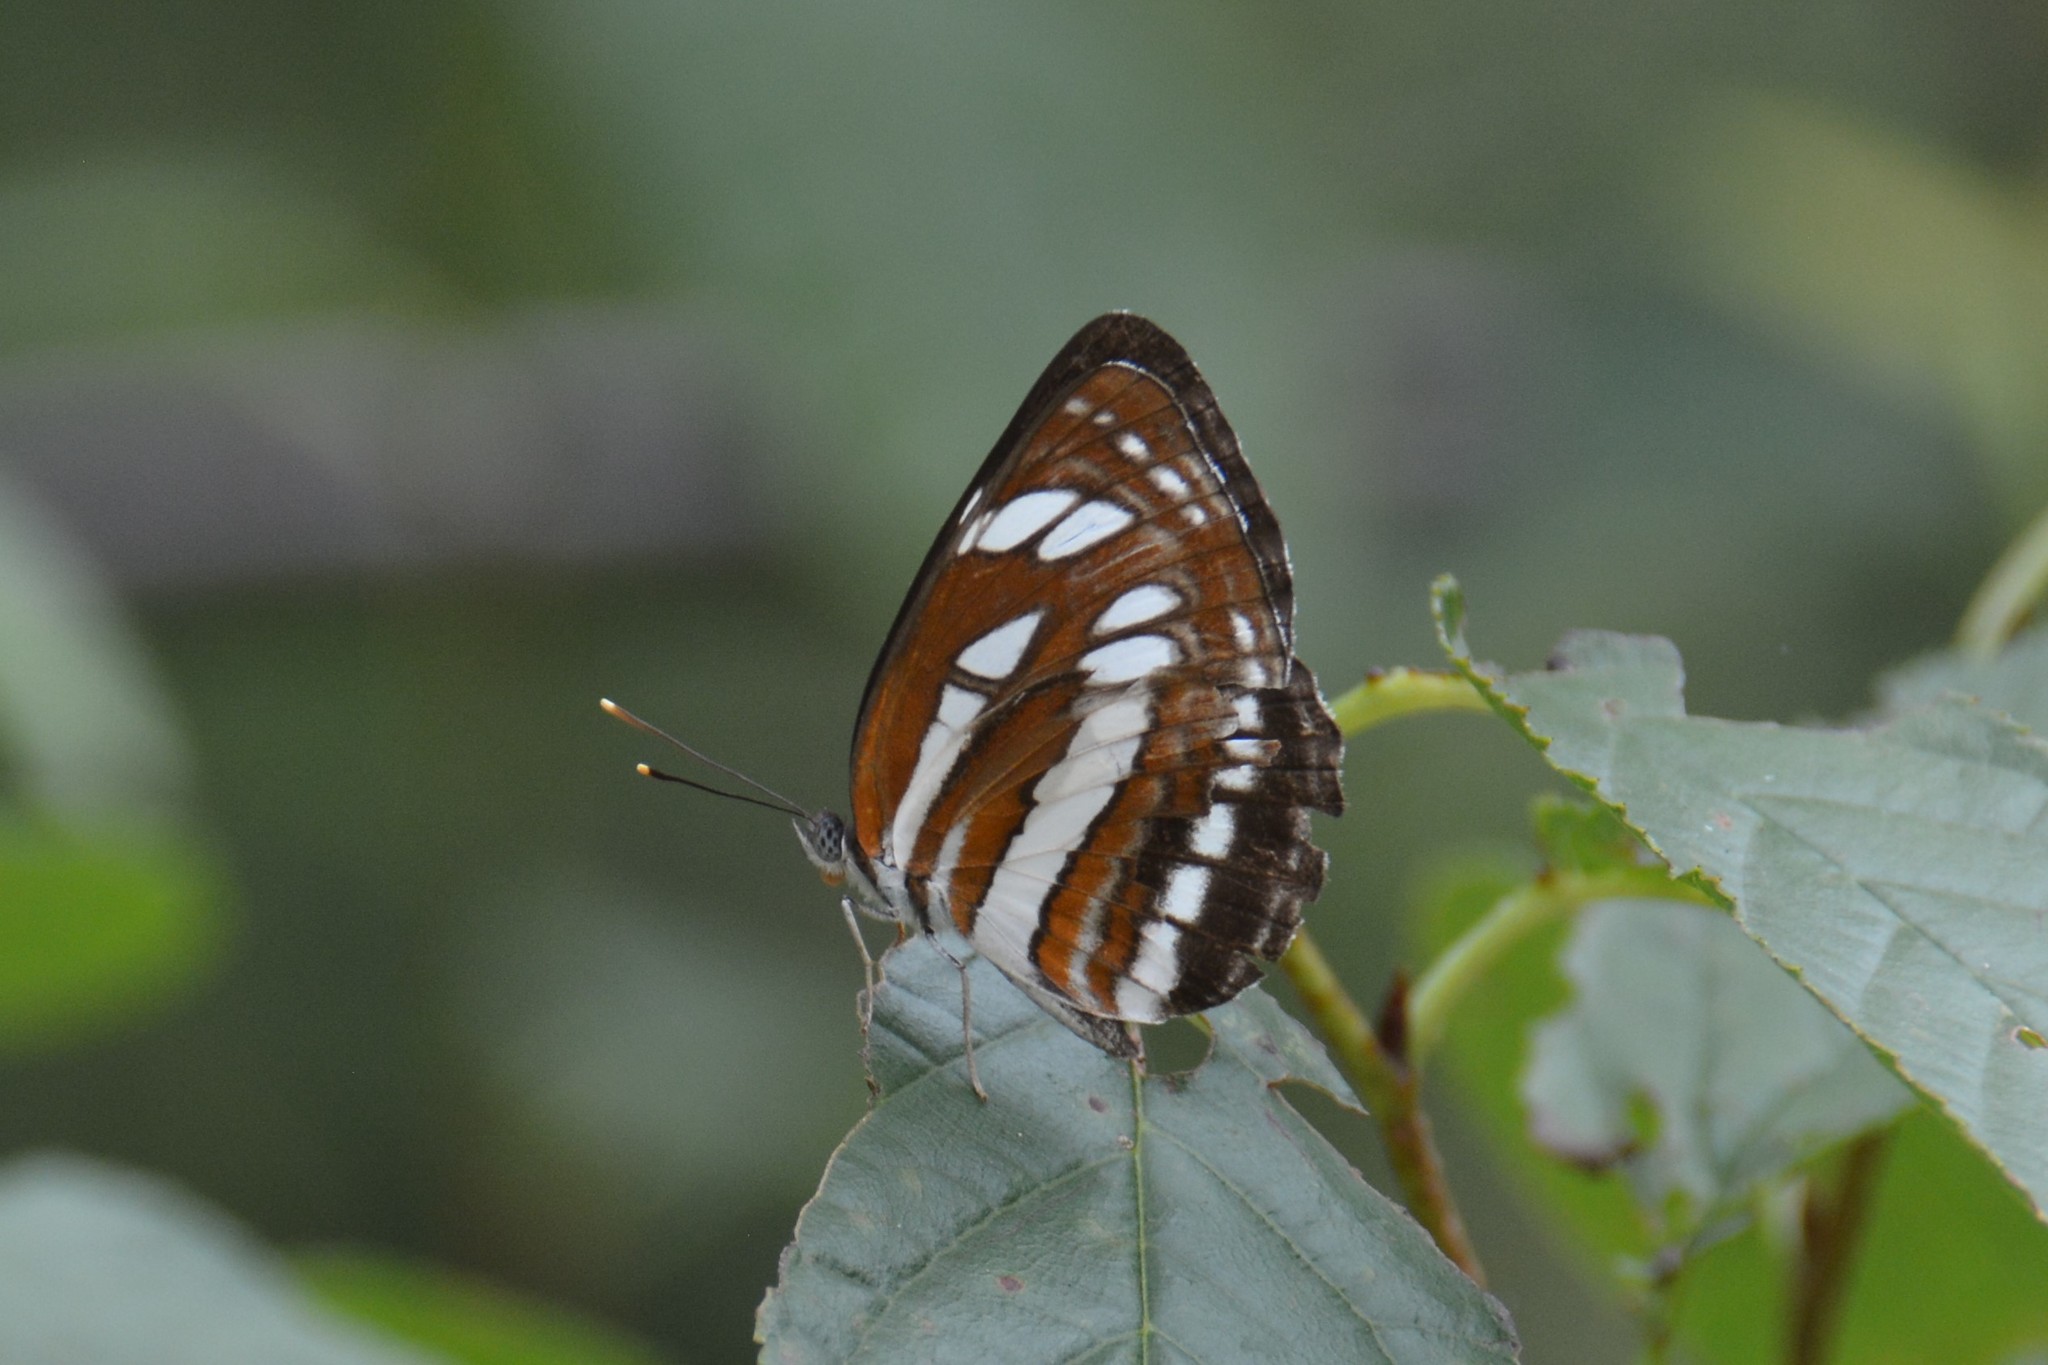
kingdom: Animalia
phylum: Arthropoda
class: Insecta
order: Lepidoptera
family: Nymphalidae
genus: Neptis
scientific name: Neptis hylas
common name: Common sailer
